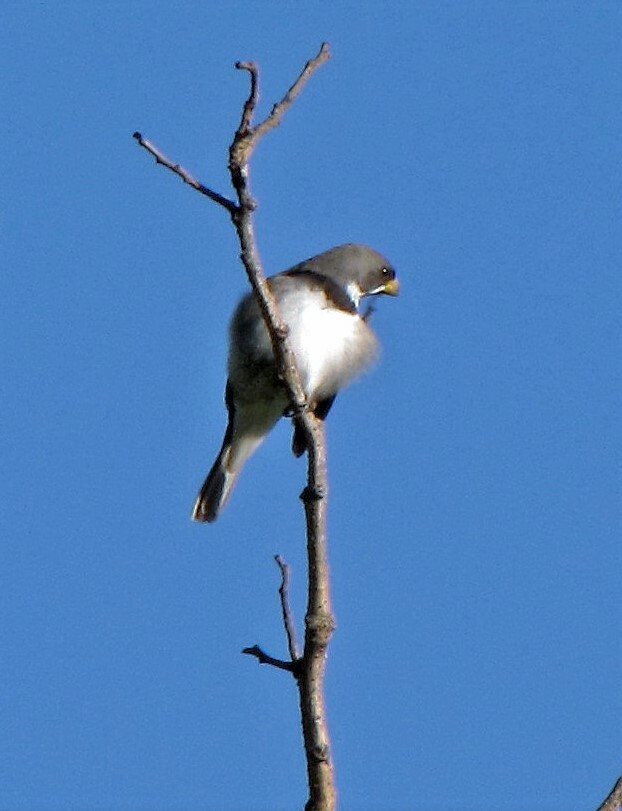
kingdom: Animalia
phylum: Chordata
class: Aves
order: Passeriformes
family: Thraupidae
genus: Sporophila
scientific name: Sporophila caerulescens
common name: Double-collared seedeater
